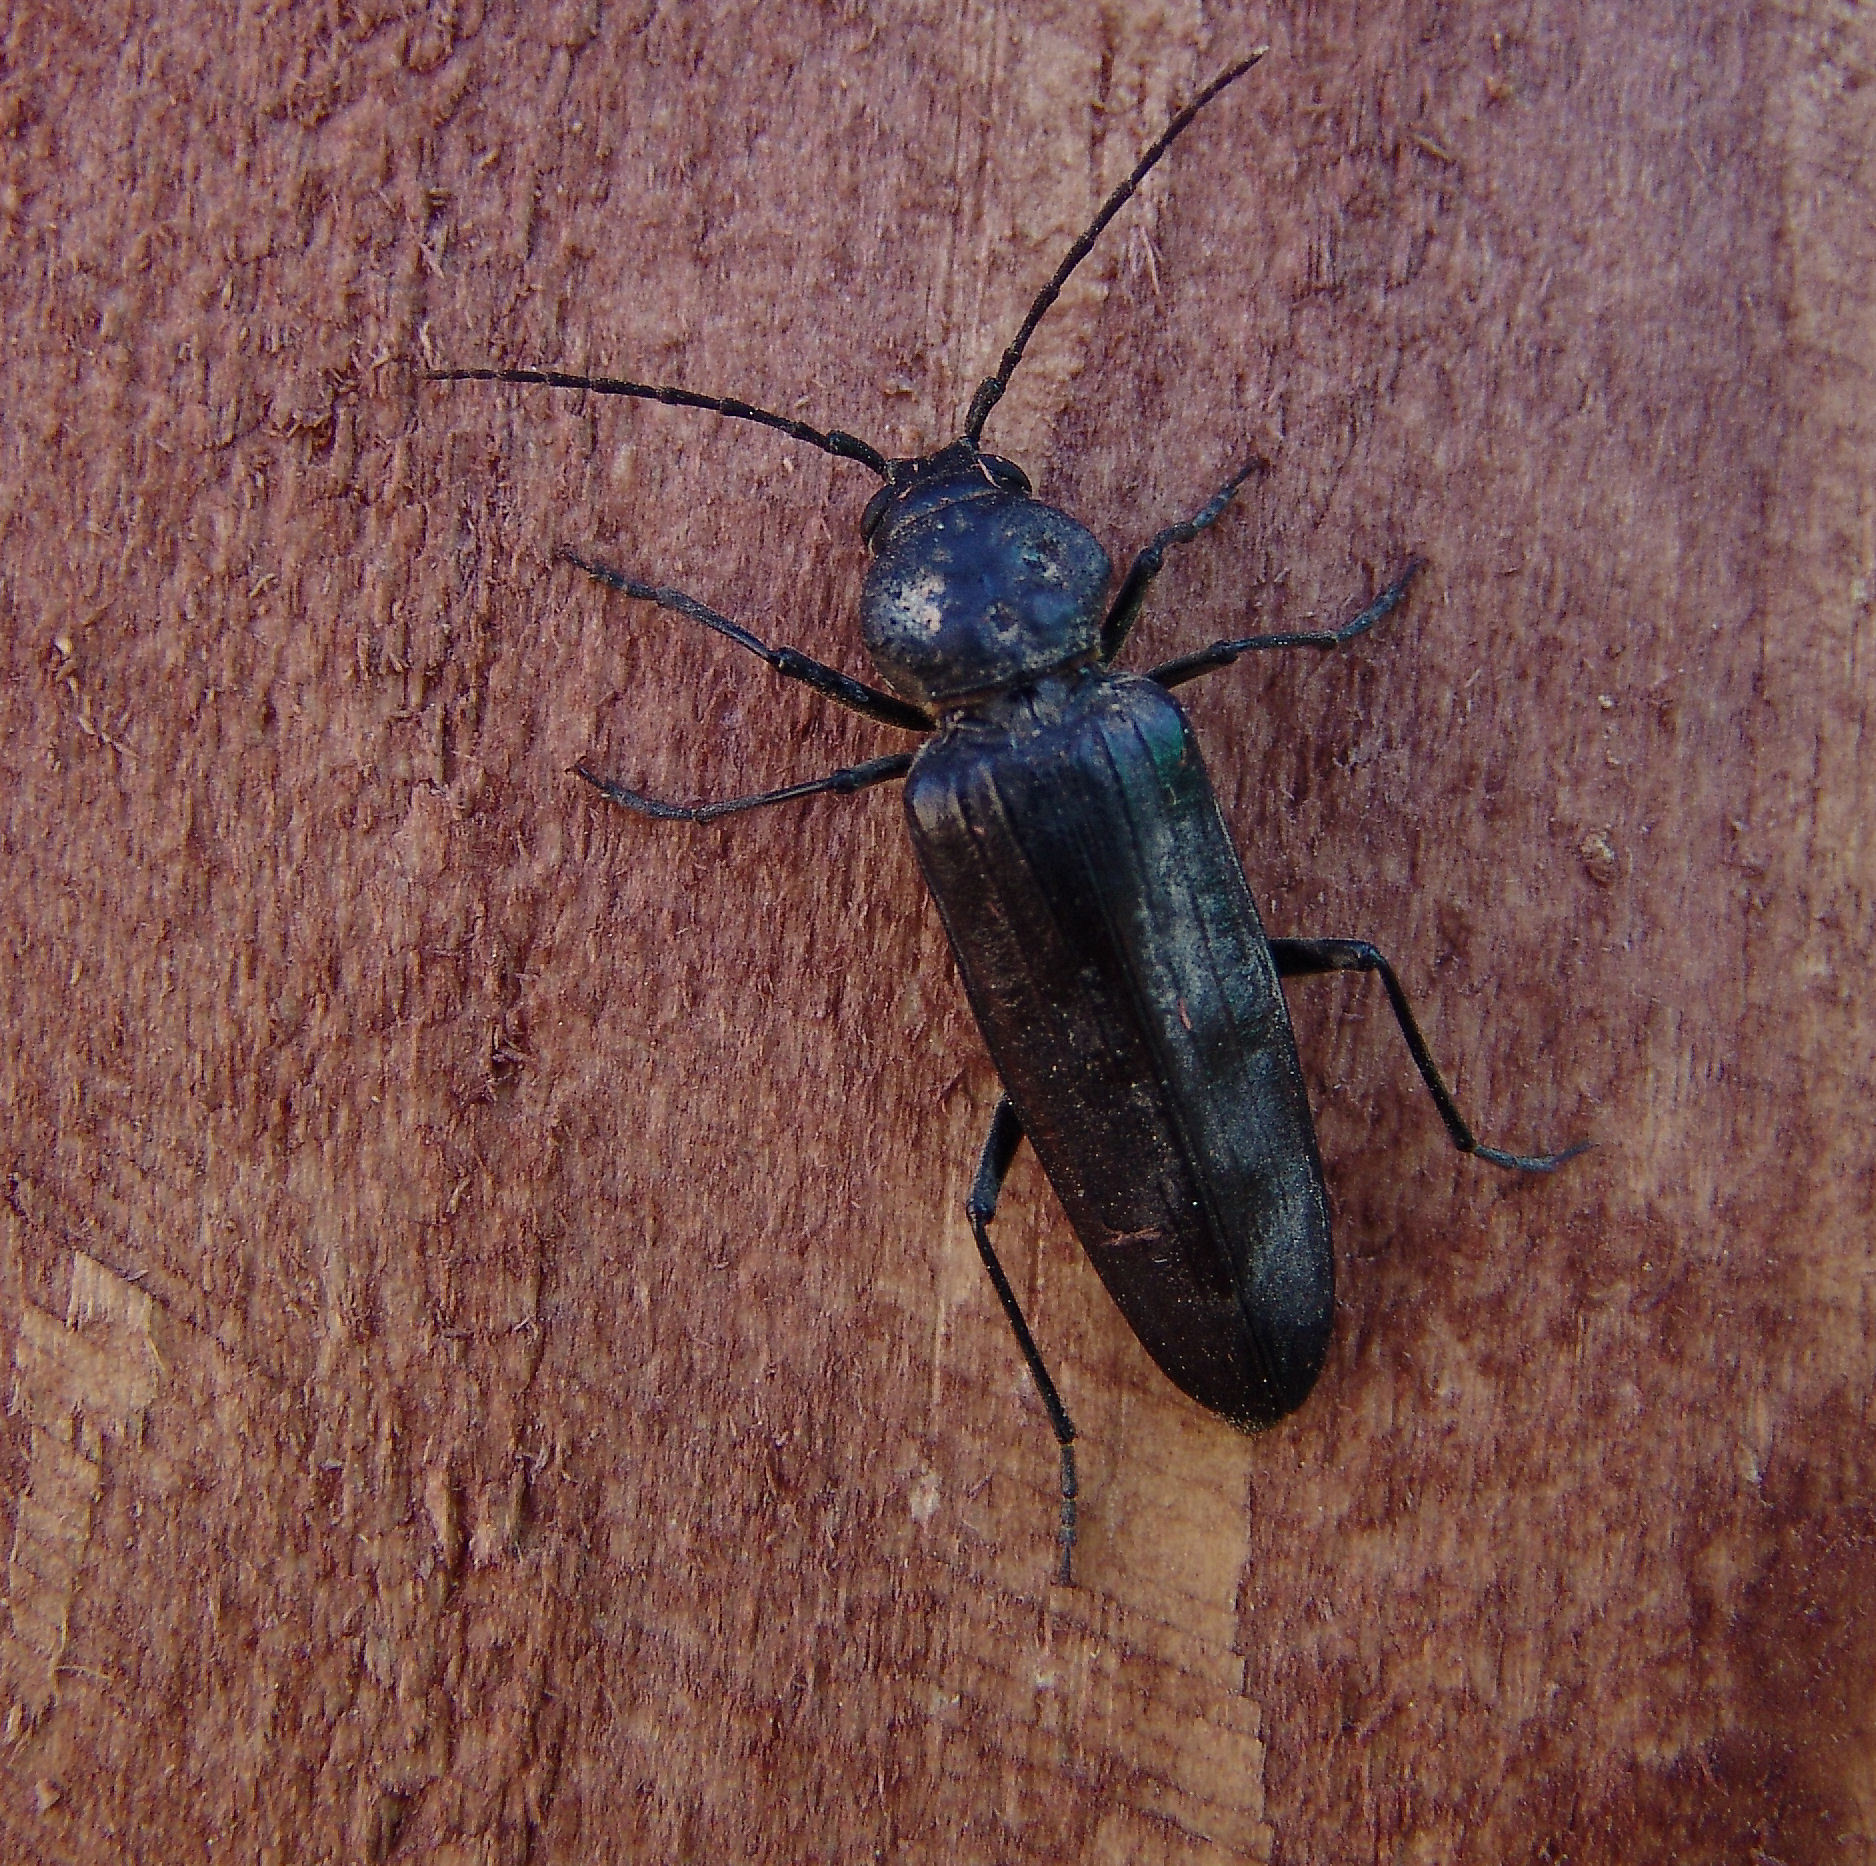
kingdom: Animalia
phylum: Arthropoda
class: Insecta
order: Coleoptera
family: Cerambycidae
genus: Arhopalus
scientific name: Arhopalus asperatus
